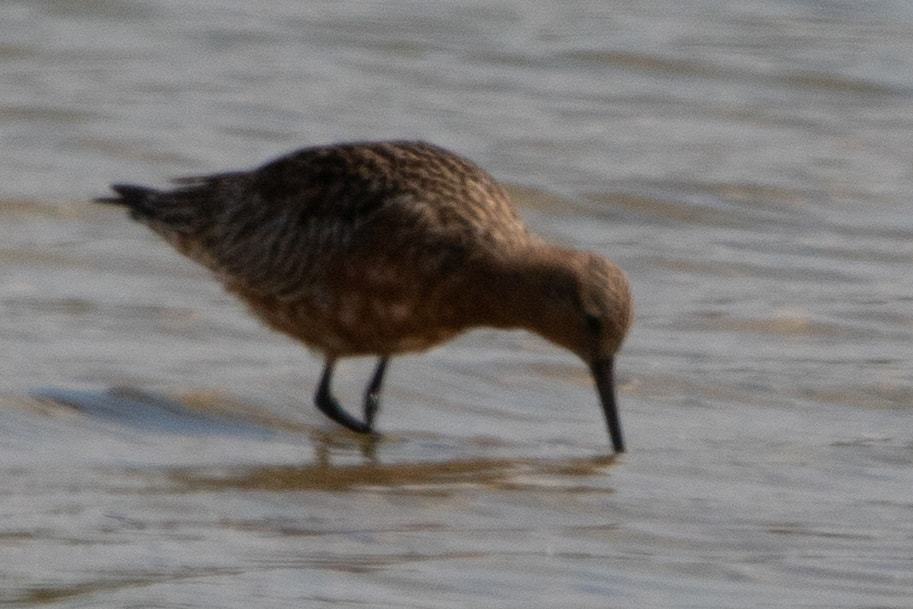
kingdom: Animalia
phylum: Chordata
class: Aves
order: Charadriiformes
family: Scolopacidae
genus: Limosa
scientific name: Limosa lapponica
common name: Bar-tailed godwit
